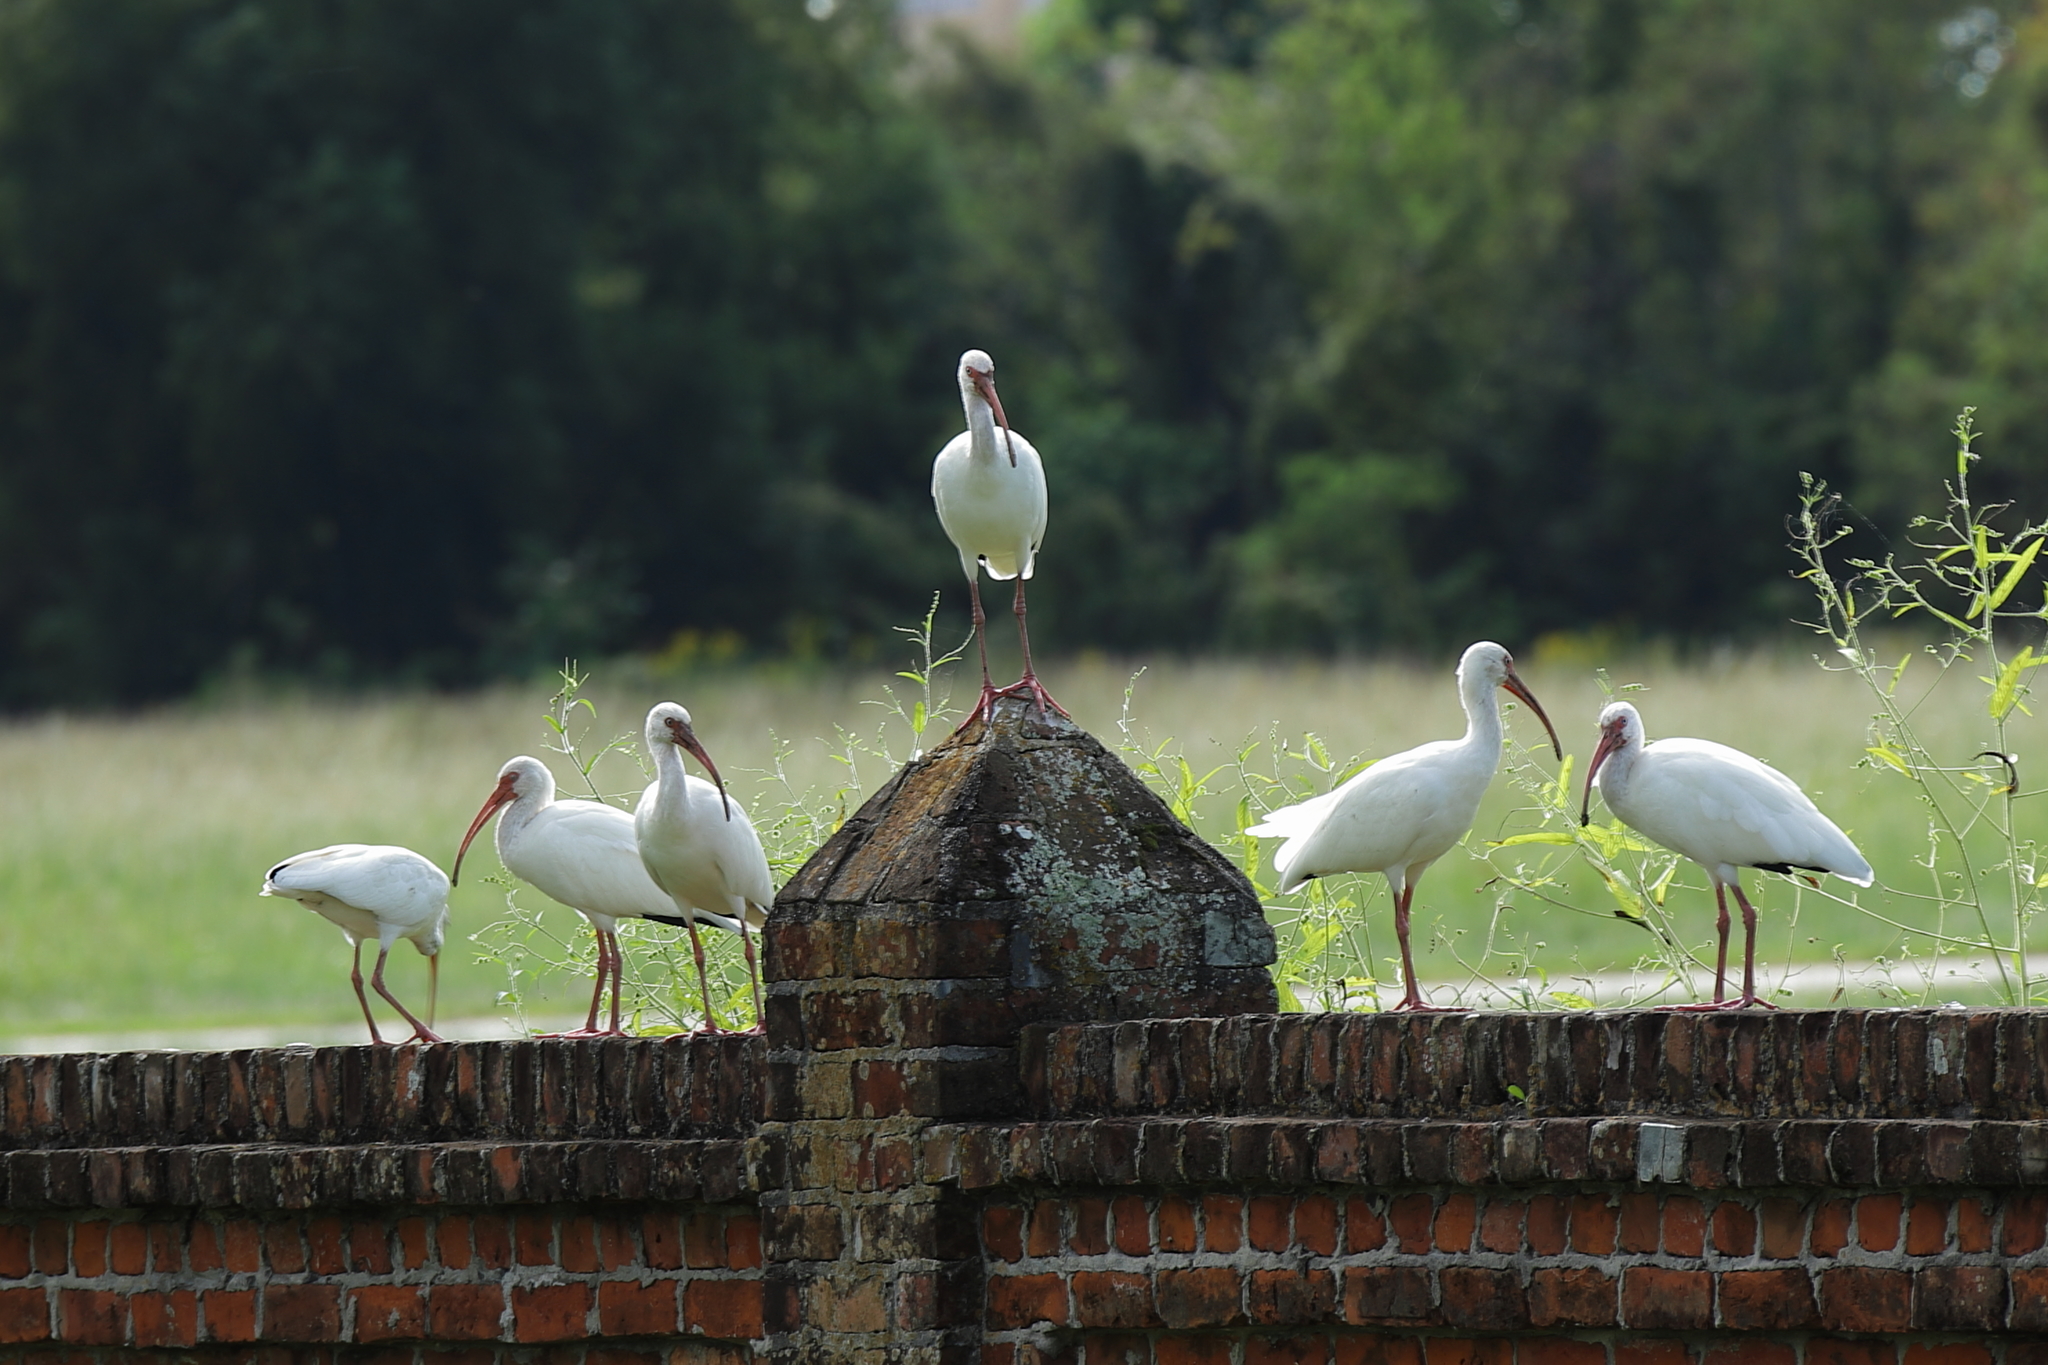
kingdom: Animalia
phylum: Chordata
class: Aves
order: Pelecaniformes
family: Threskiornithidae
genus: Eudocimus
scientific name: Eudocimus albus
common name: White ibis
